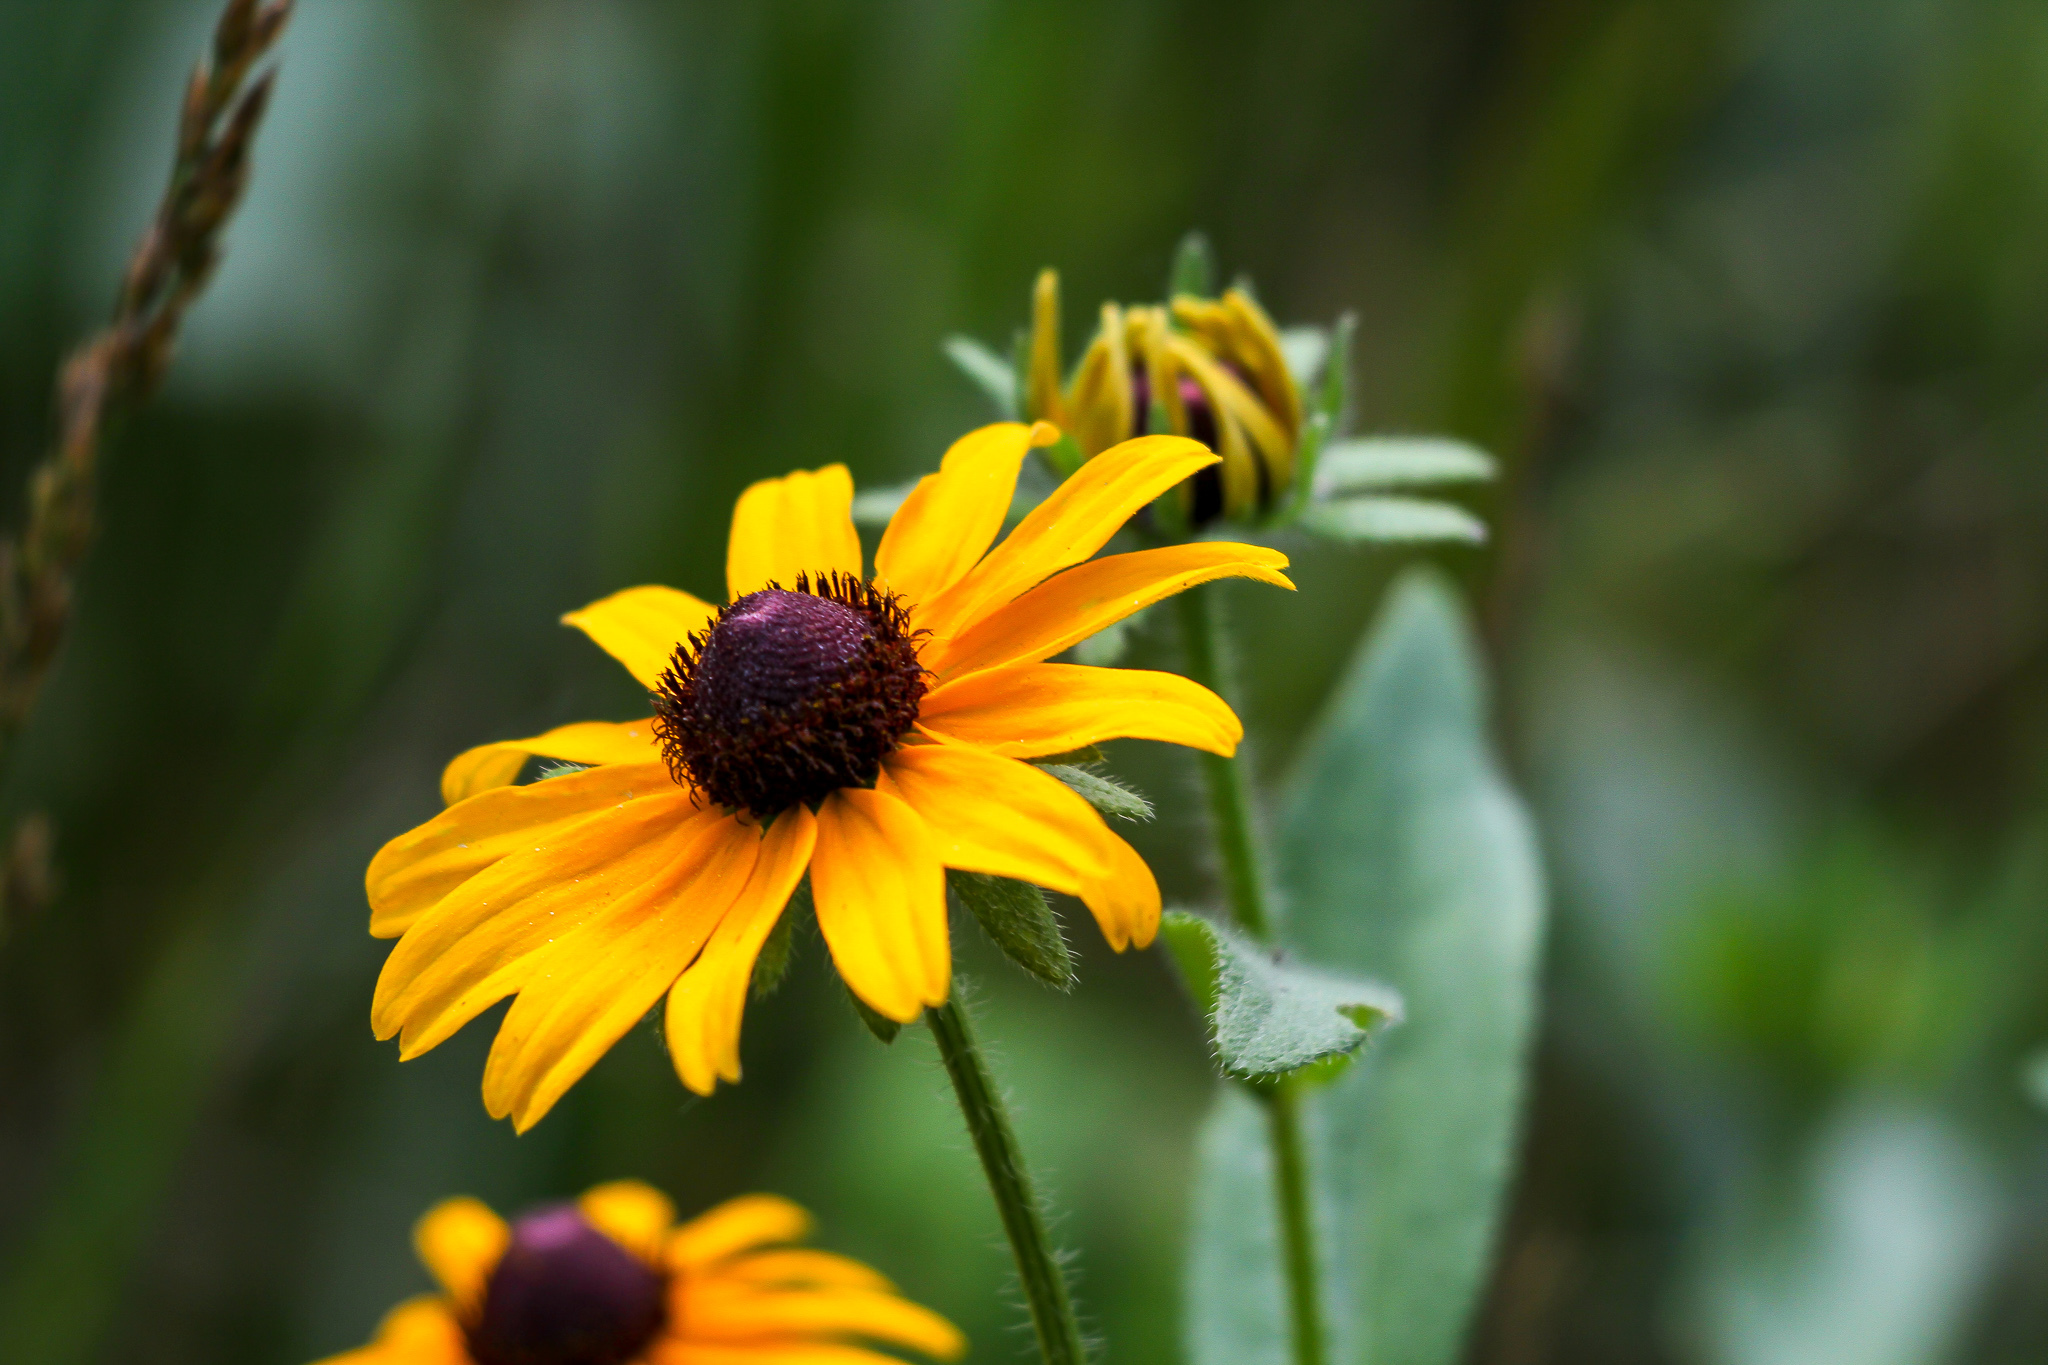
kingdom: Plantae
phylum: Tracheophyta
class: Magnoliopsida
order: Asterales
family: Asteraceae
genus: Rudbeckia
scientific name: Rudbeckia hirta
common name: Black-eyed-susan
